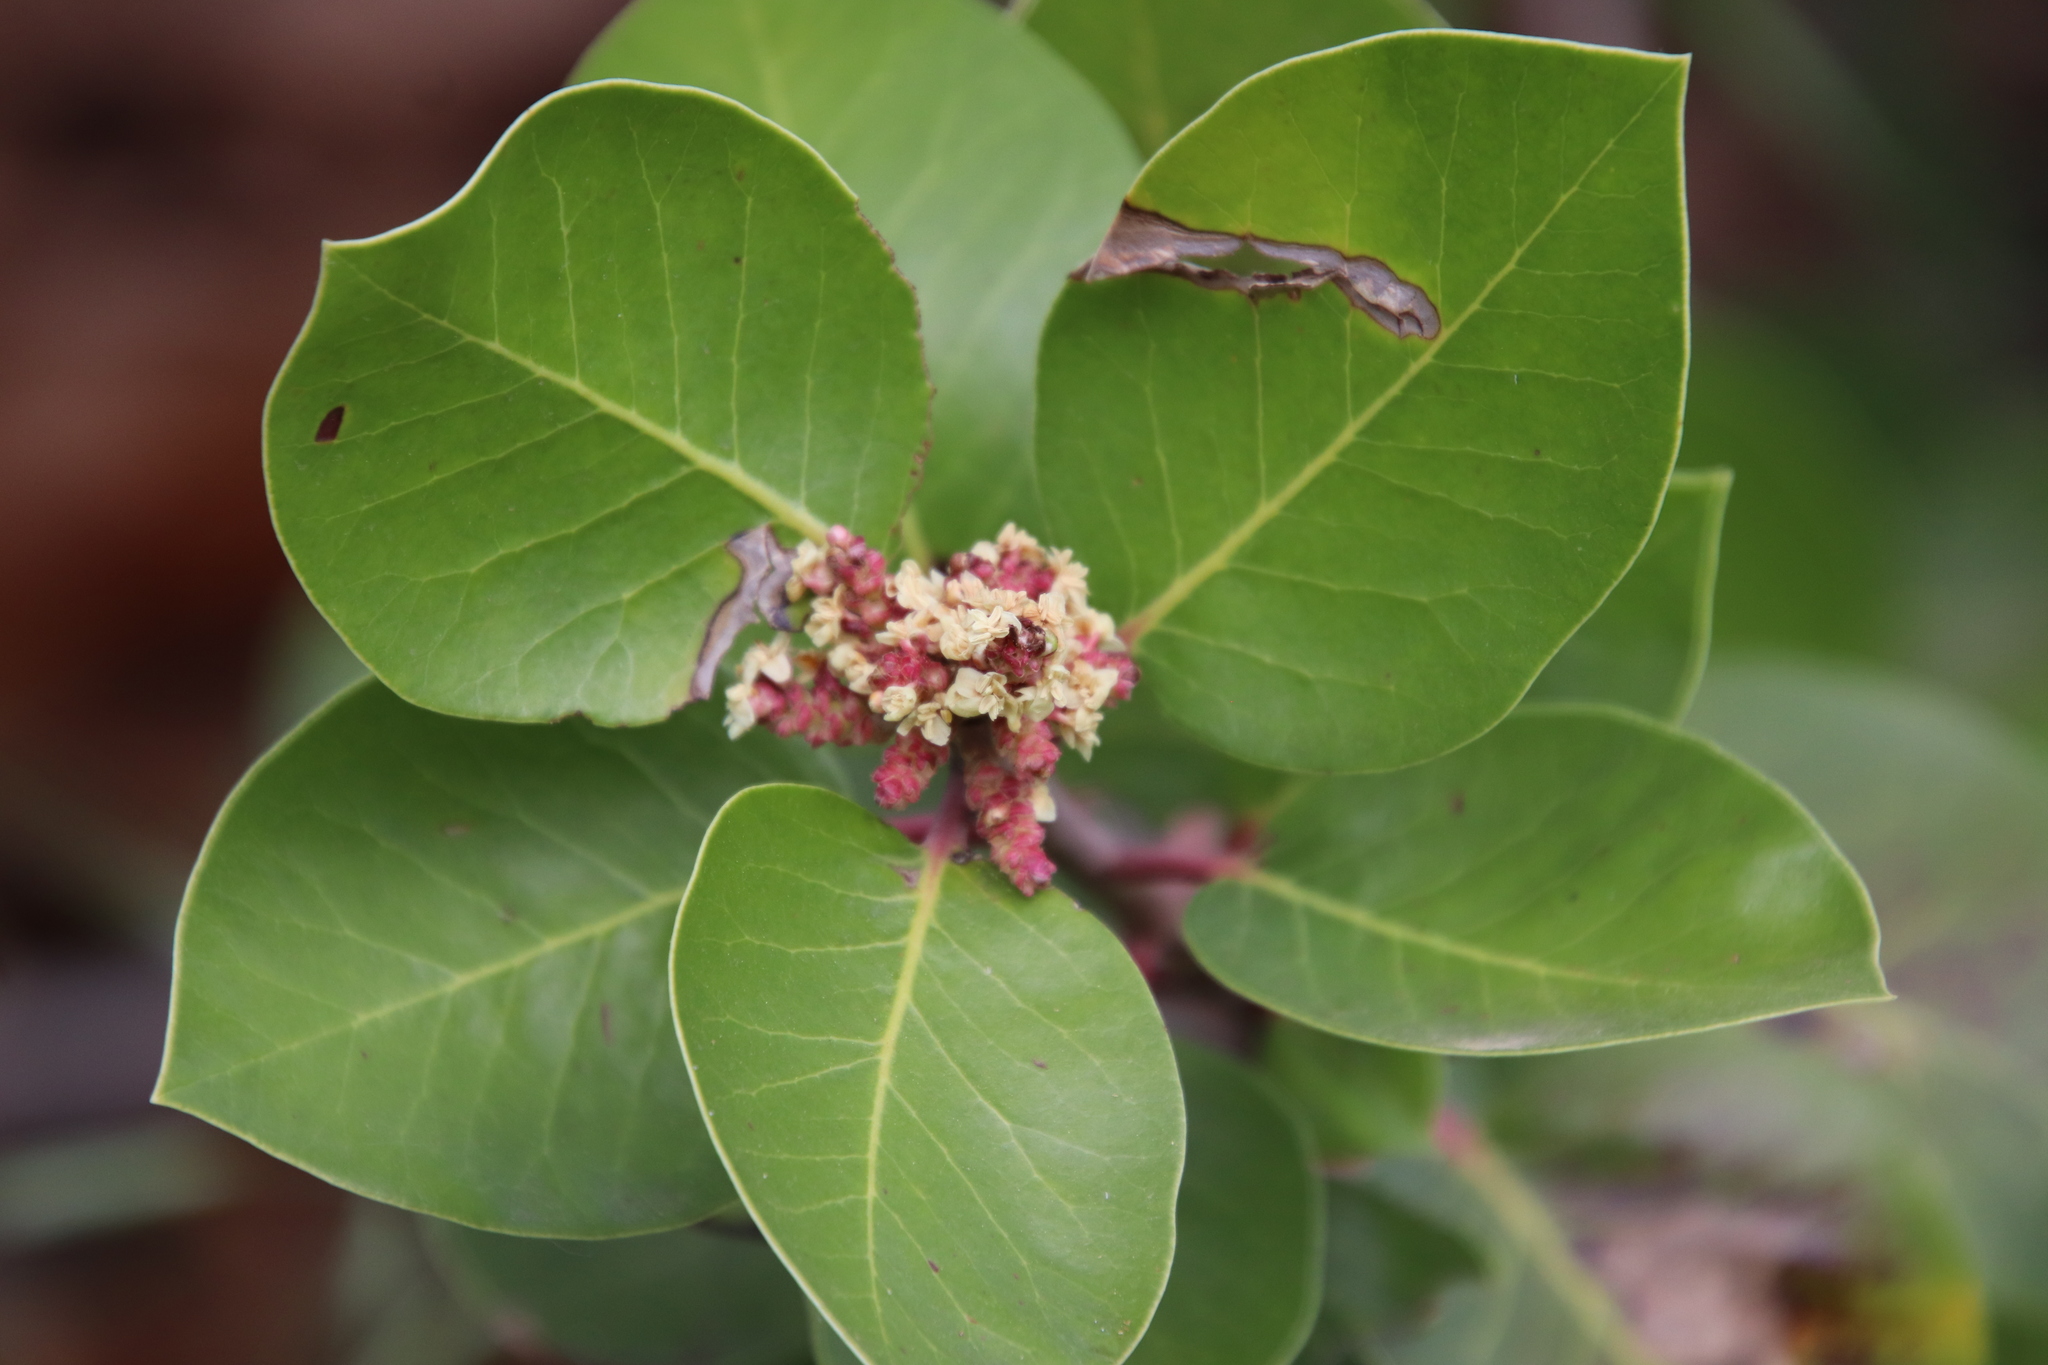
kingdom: Plantae
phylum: Tracheophyta
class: Magnoliopsida
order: Sapindales
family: Anacardiaceae
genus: Rhus
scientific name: Rhus ovata
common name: Sugar sumac
